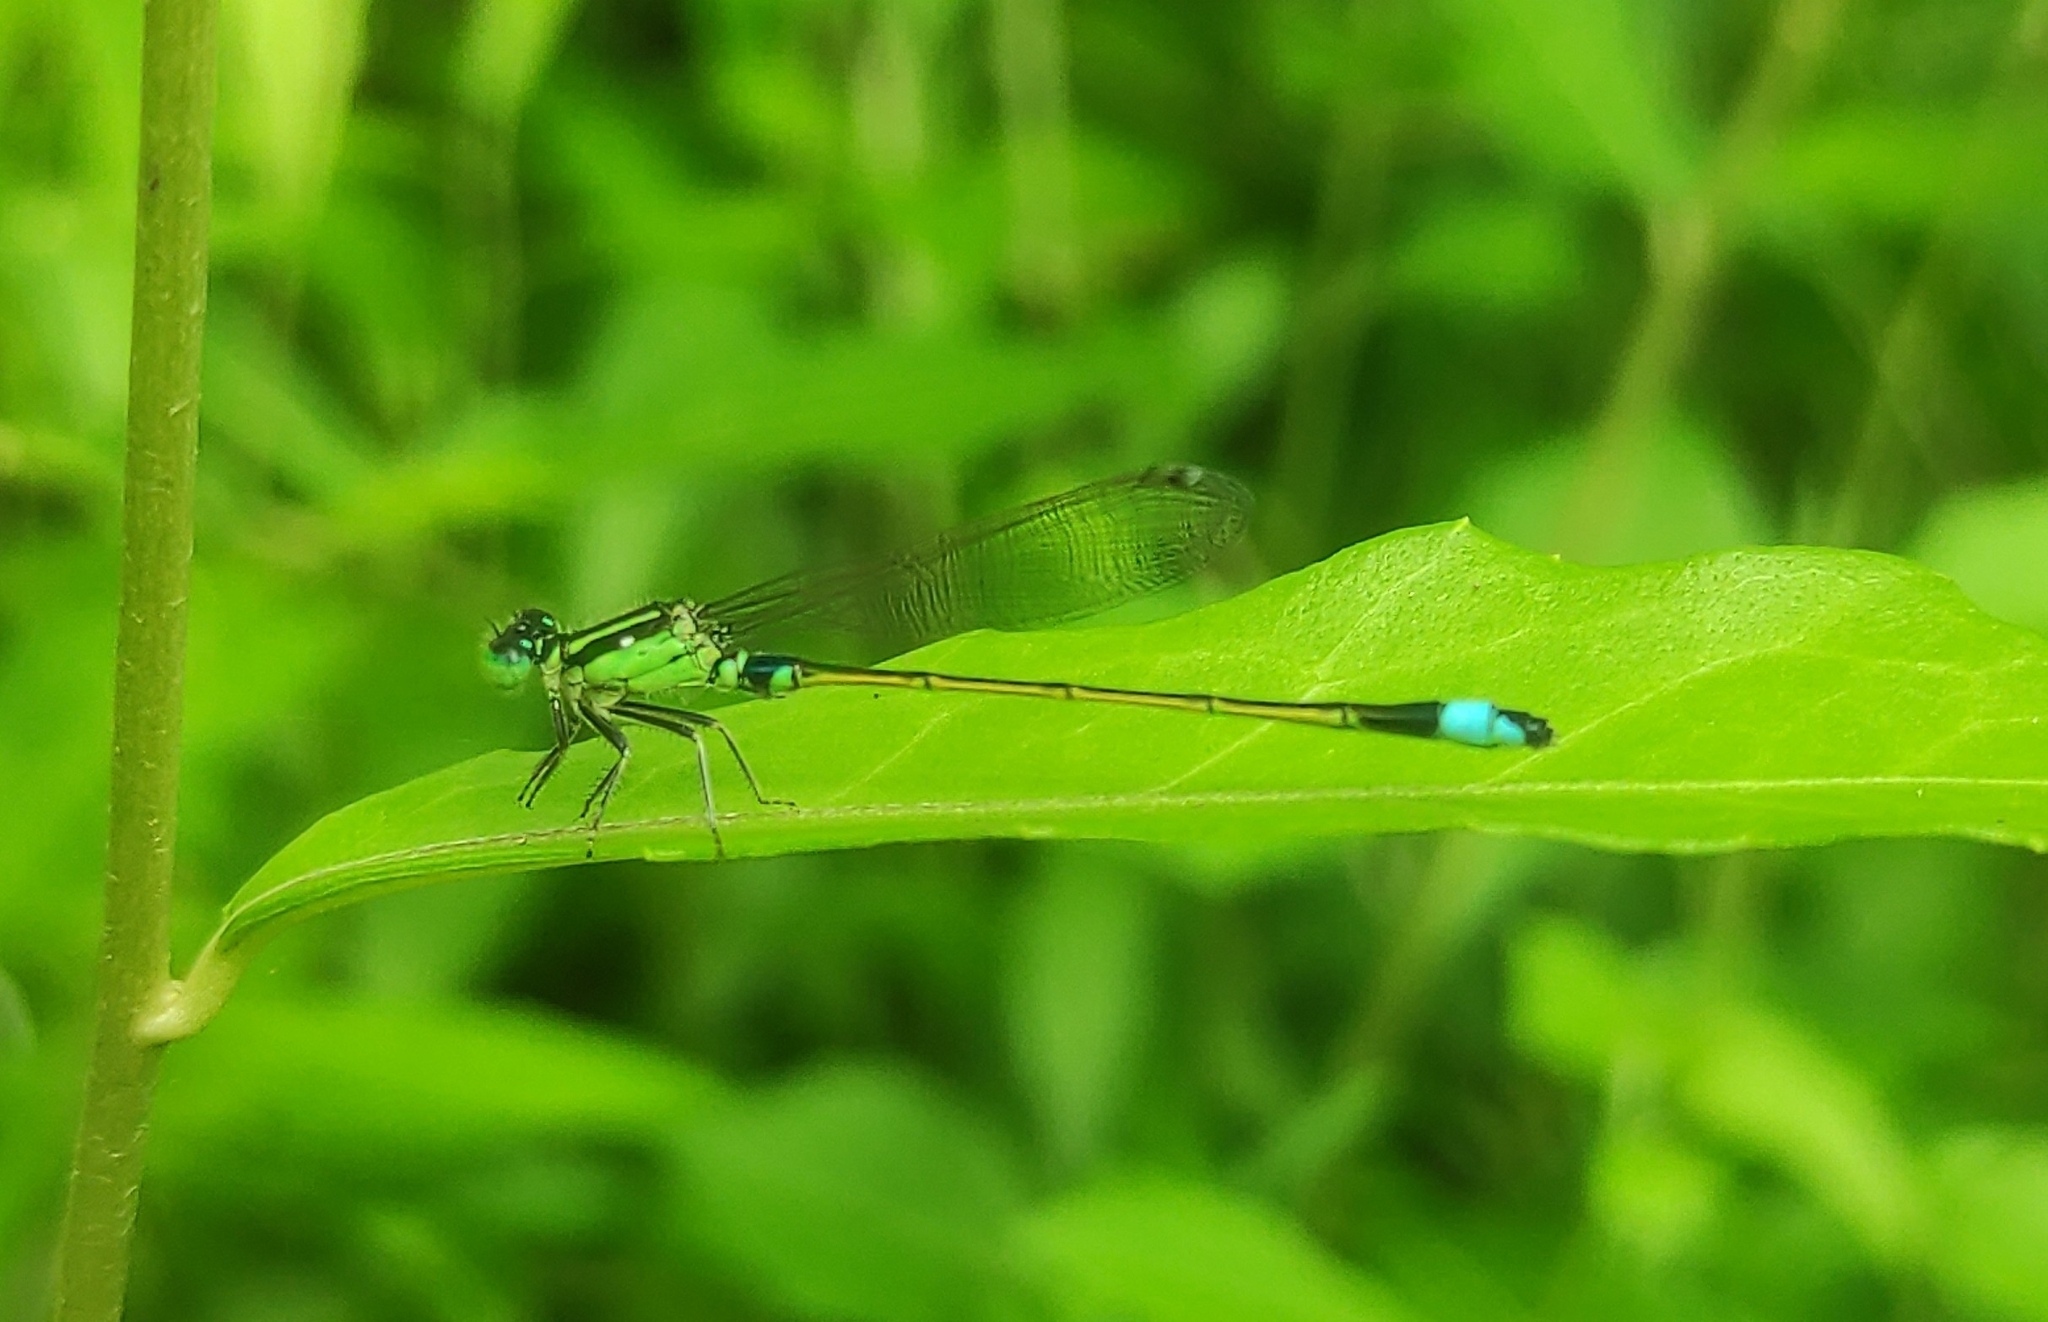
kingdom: Animalia
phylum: Arthropoda
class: Insecta
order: Odonata
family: Coenagrionidae
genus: Ischnura
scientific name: Ischnura senegalensis
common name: Tropical bluetail
